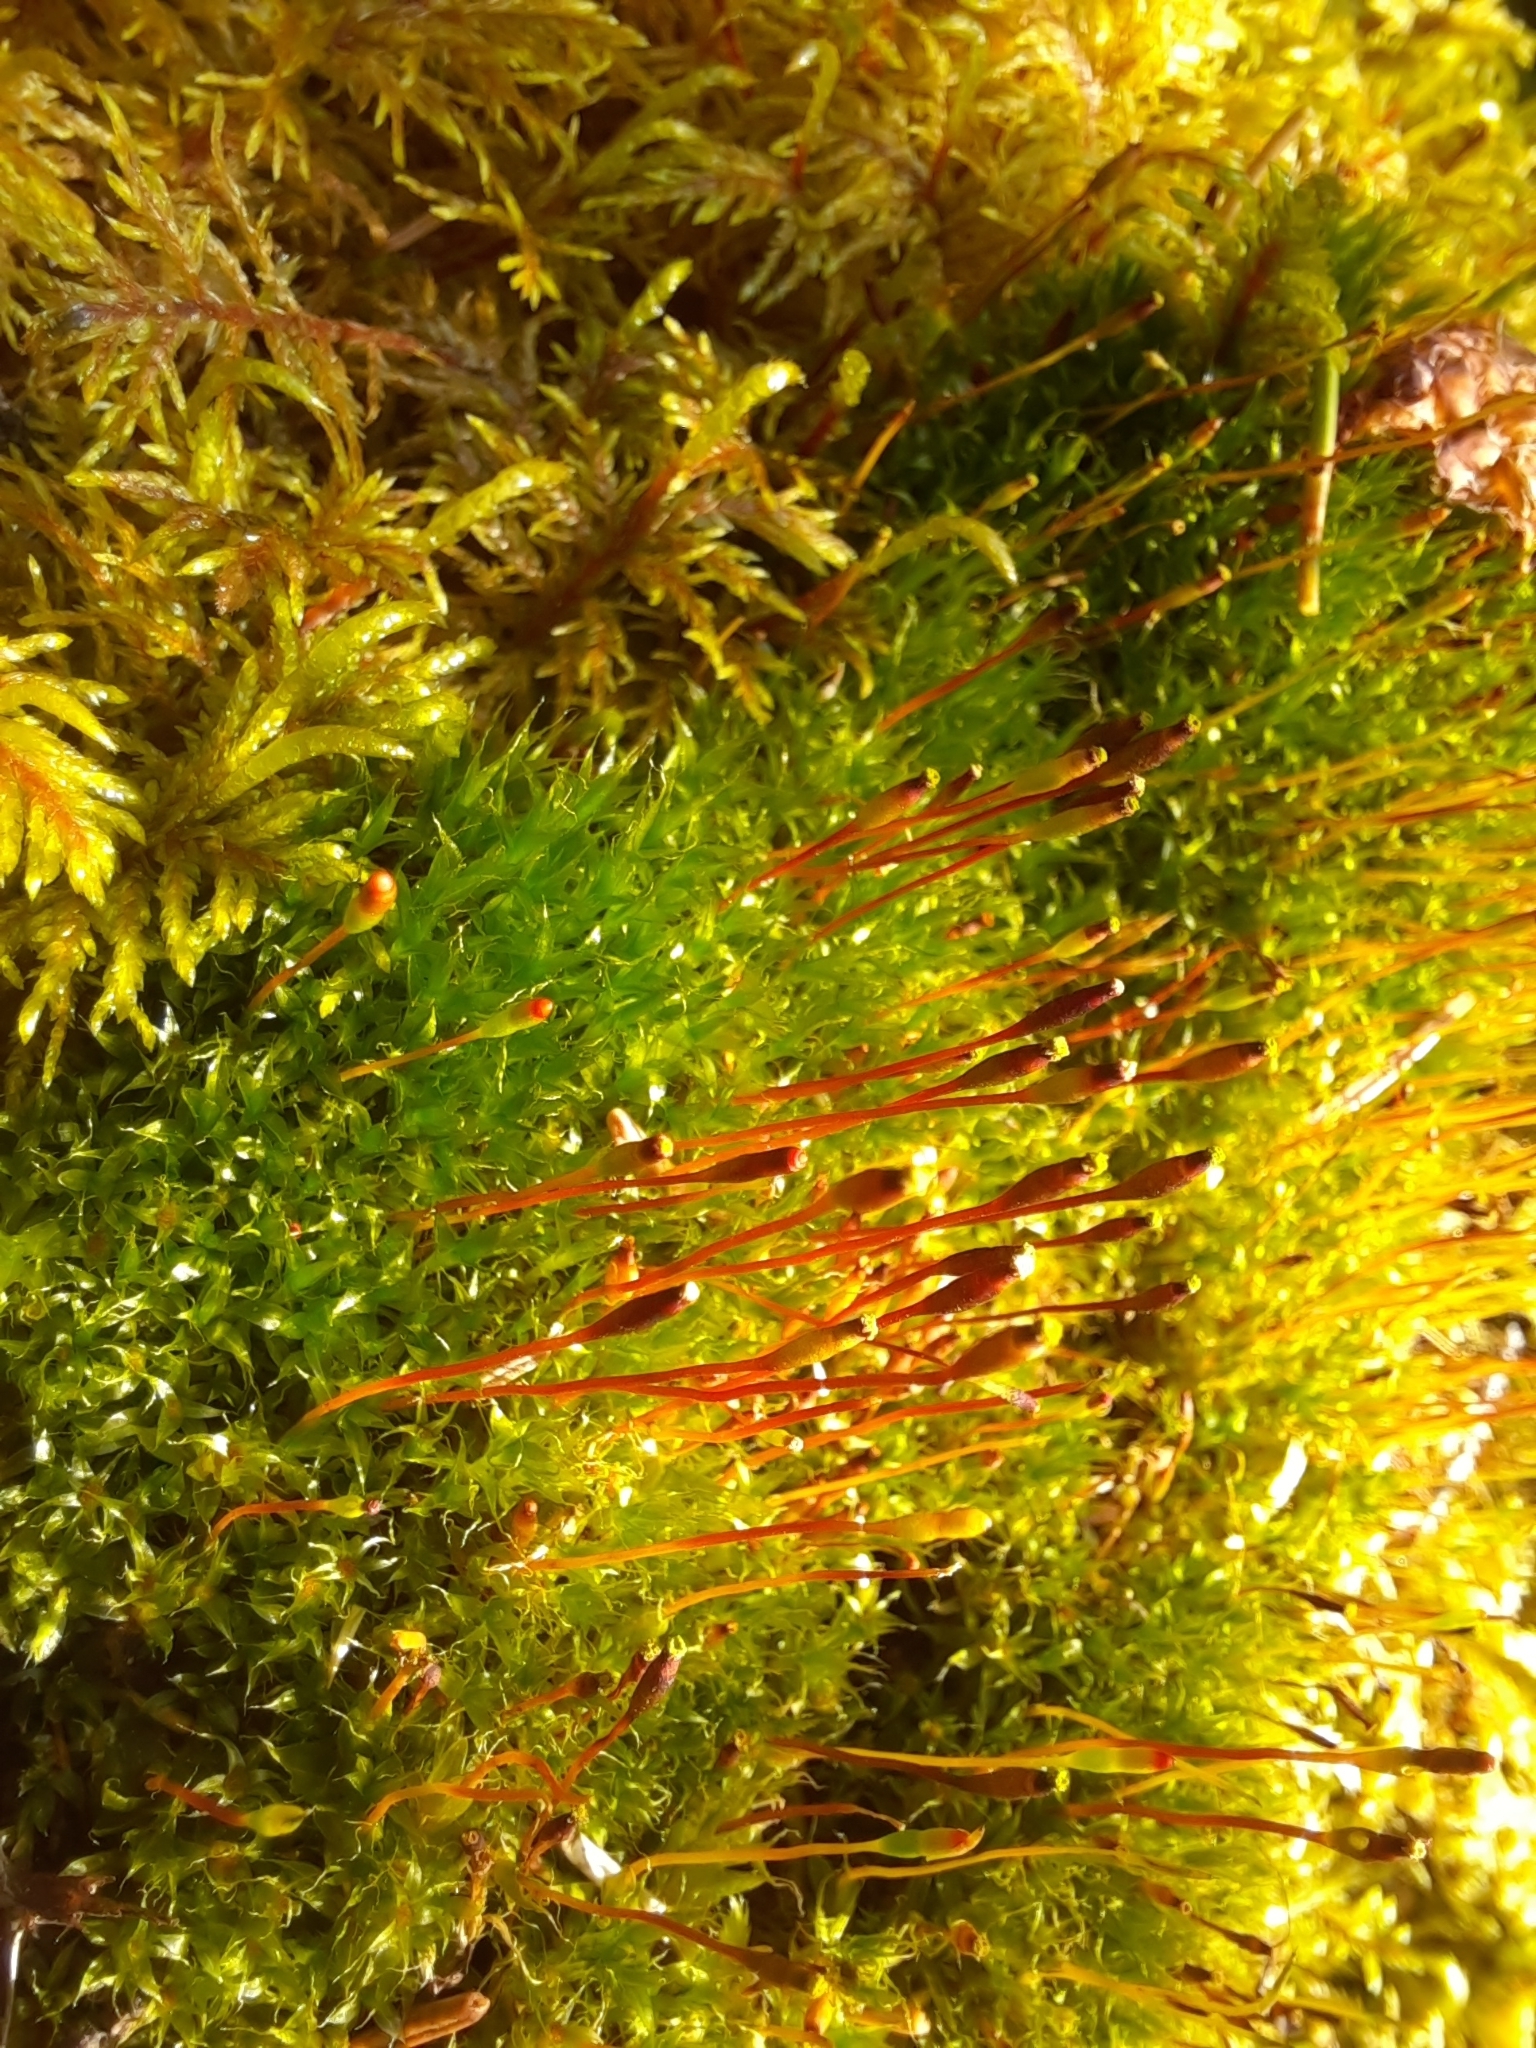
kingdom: Plantae
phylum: Bryophyta
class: Bryopsida
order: Splachnales
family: Splachnaceae
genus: Tetraplodon
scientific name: Tetraplodon mnioides
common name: Entire-leaved nitrogen moss
